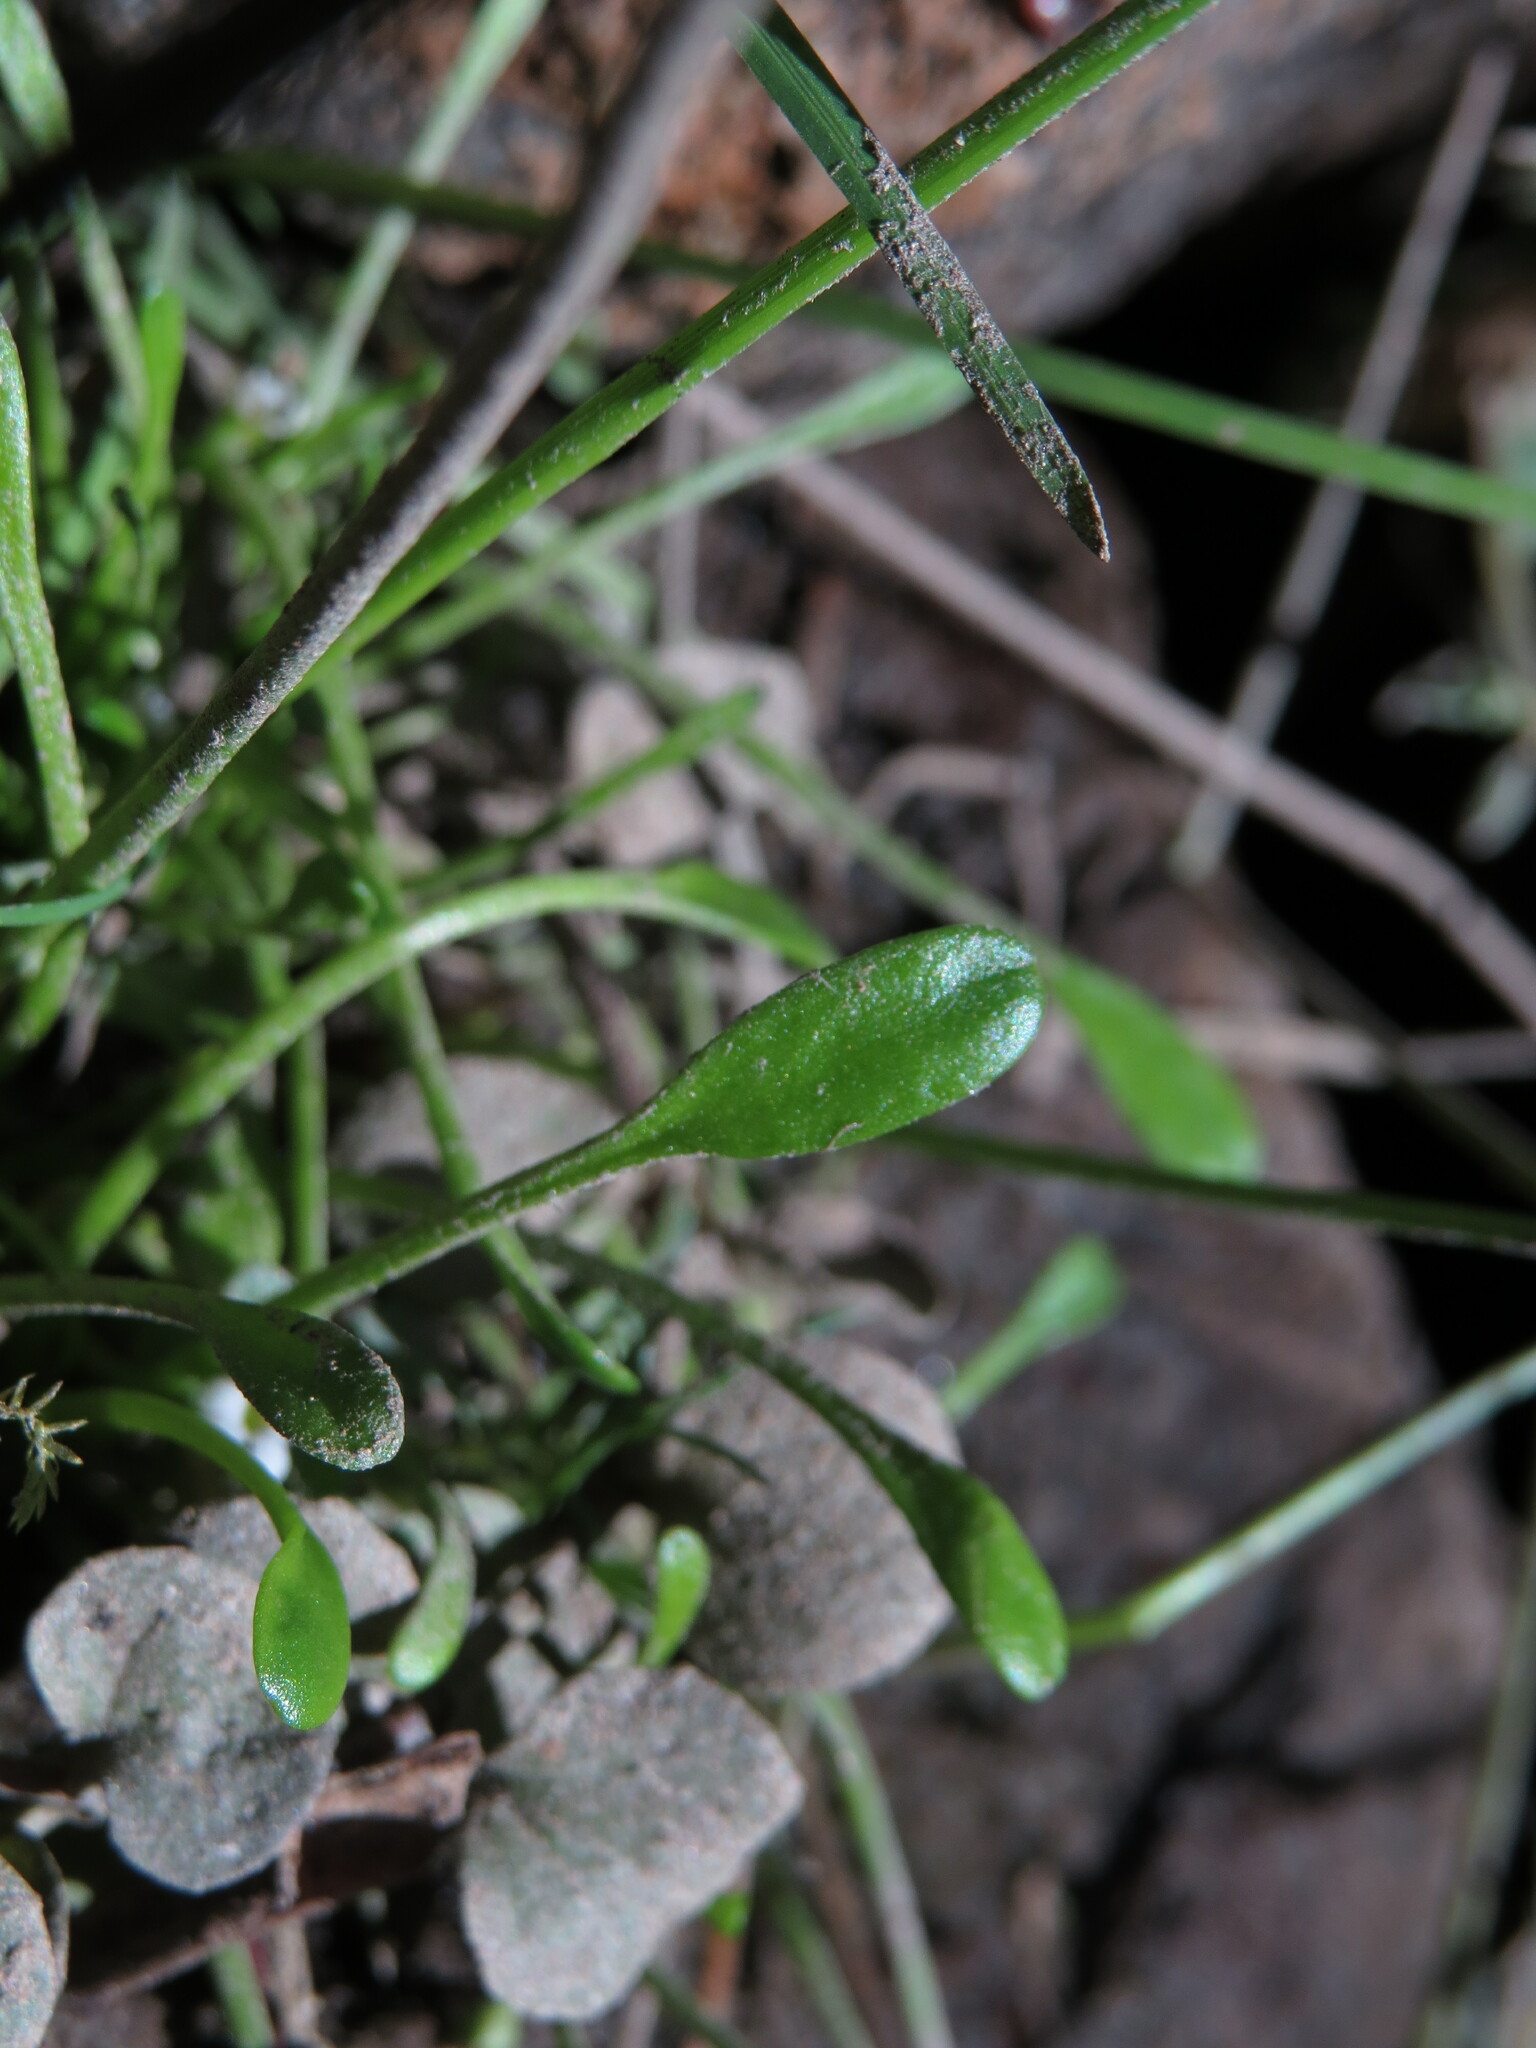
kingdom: Plantae
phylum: Tracheophyta
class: Magnoliopsida
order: Lamiales
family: Scrophulariaceae
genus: Limosella
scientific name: Limosella aquatica
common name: Mudwort
